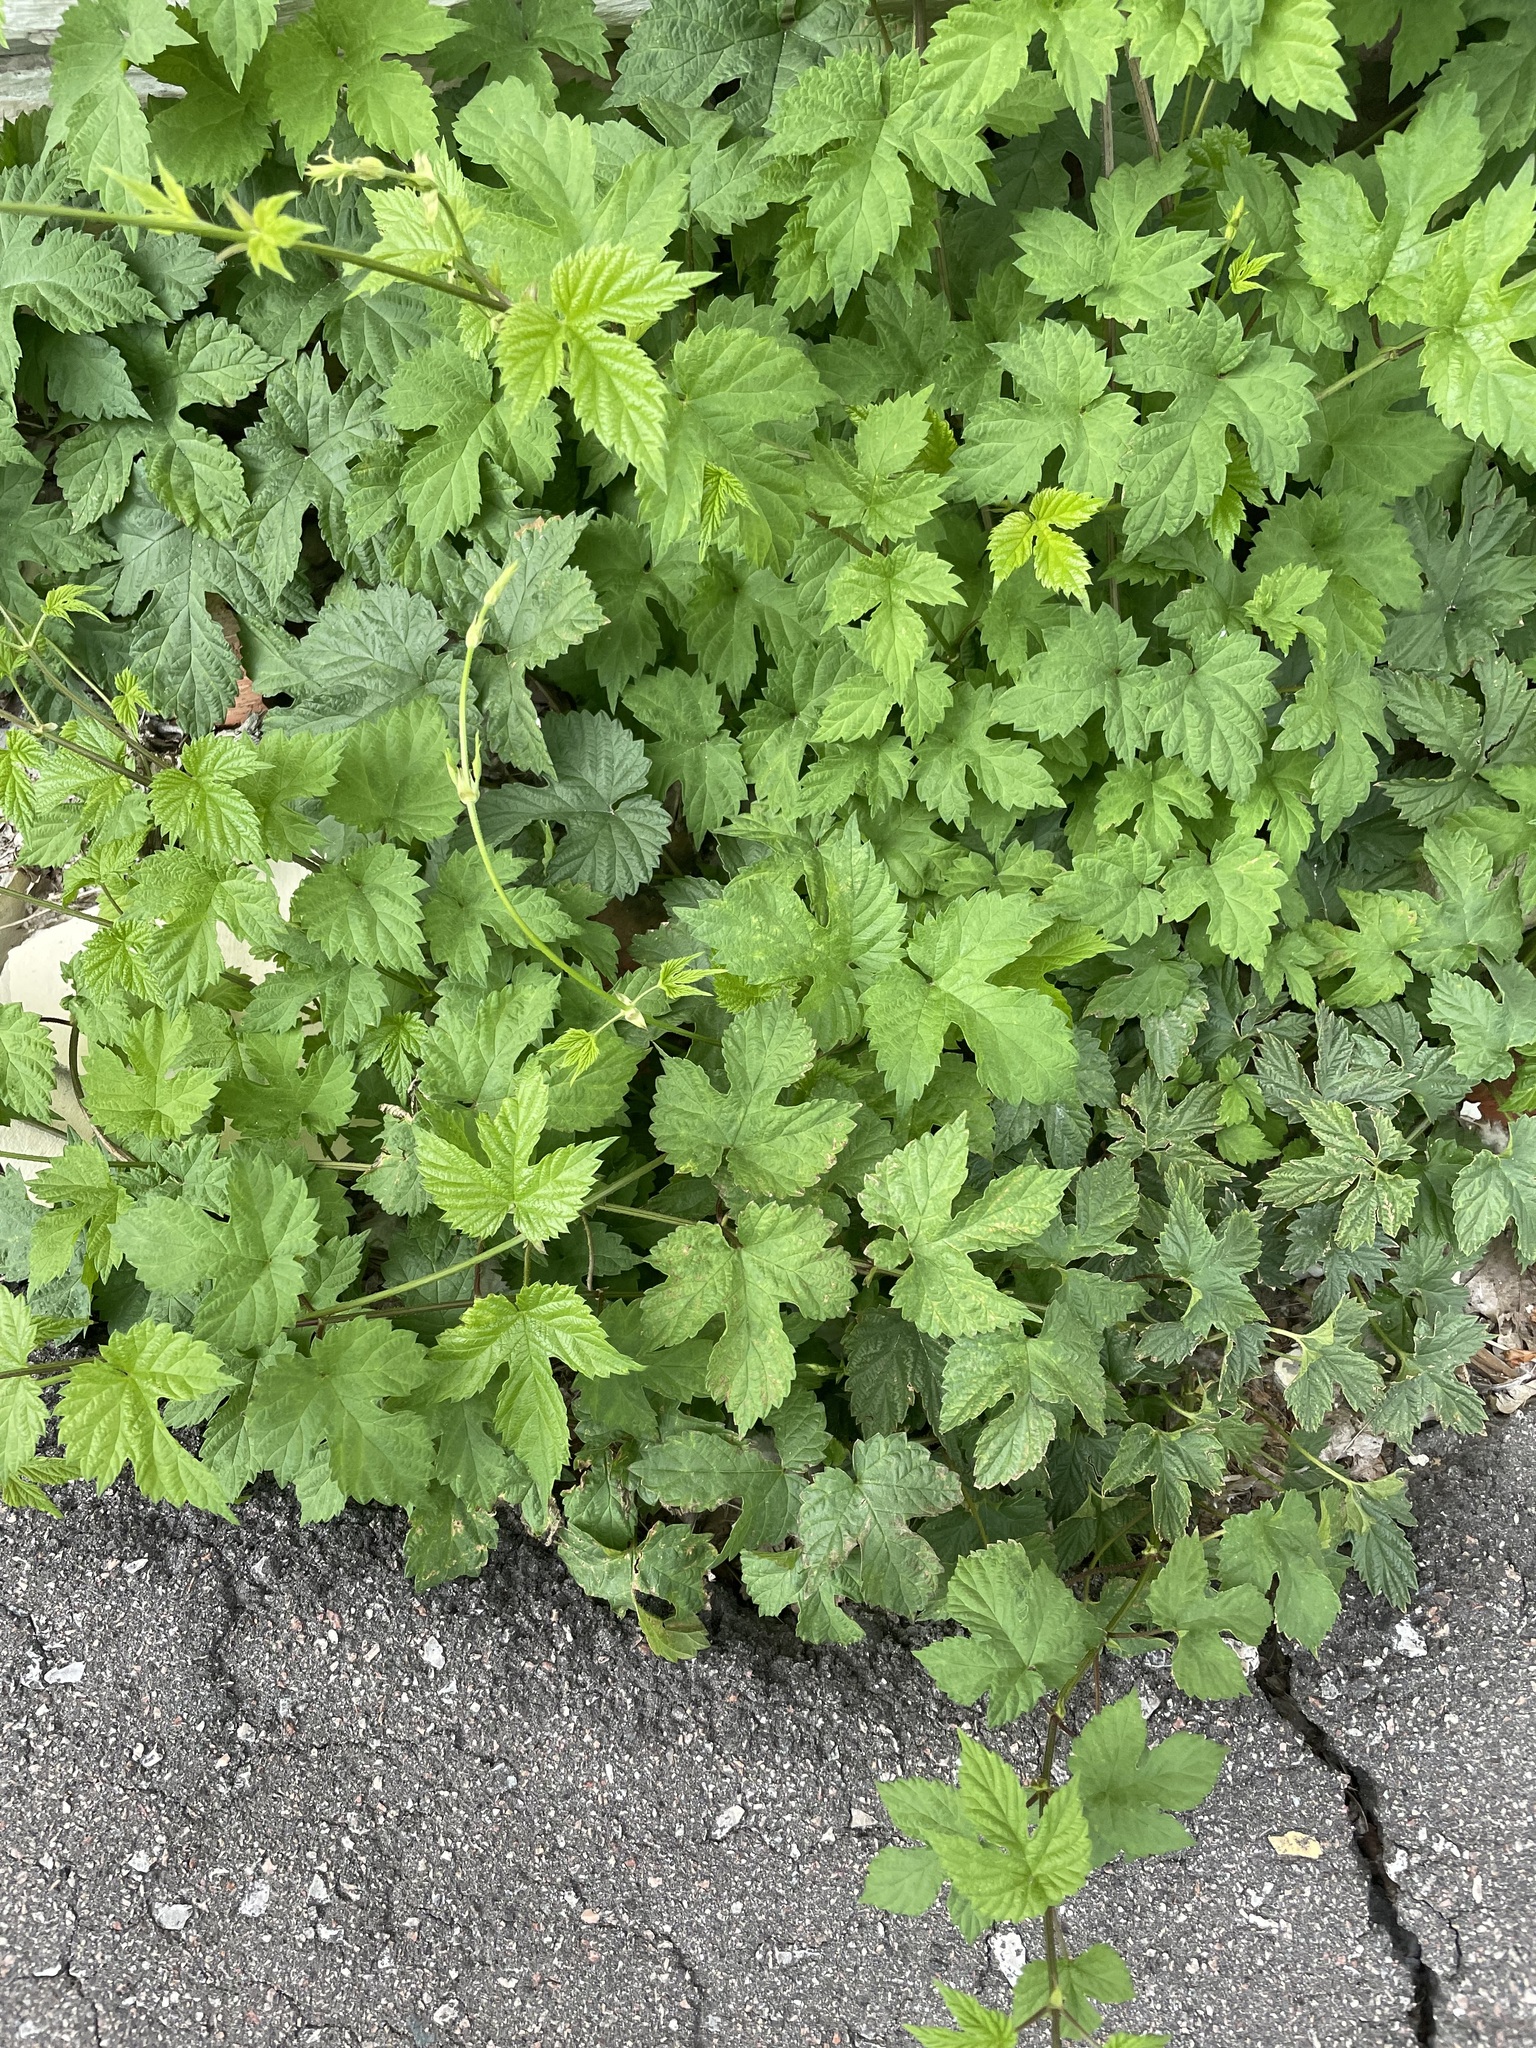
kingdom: Plantae
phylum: Tracheophyta
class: Magnoliopsida
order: Rosales
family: Cannabaceae
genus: Humulus
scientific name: Humulus lupulus
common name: Hop
